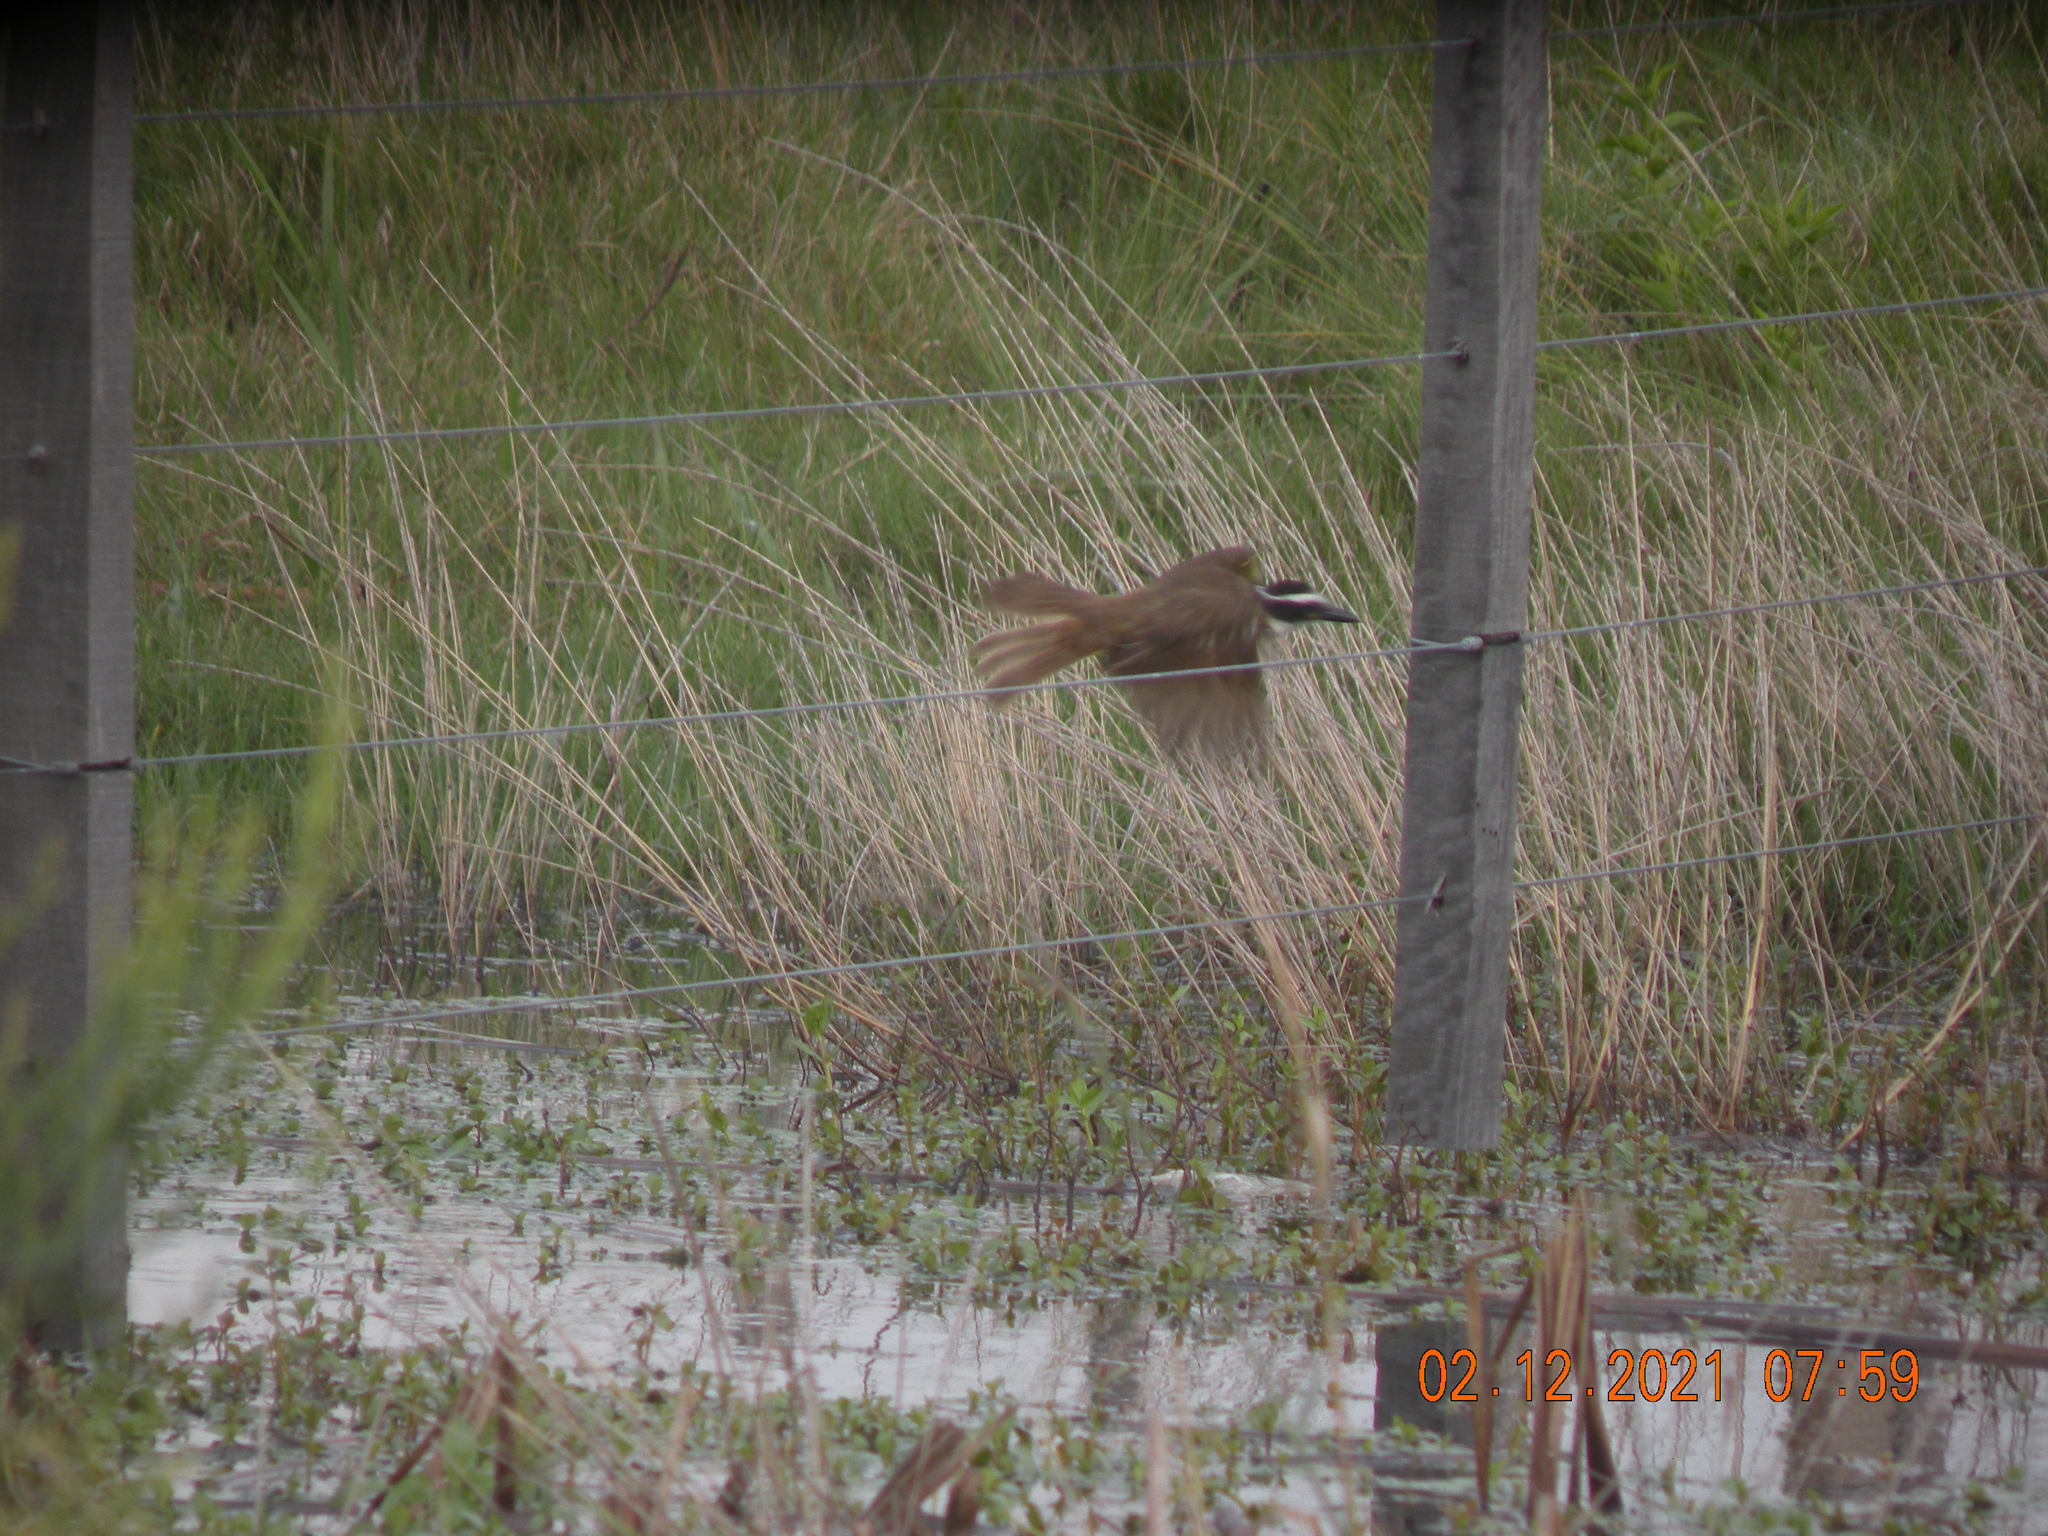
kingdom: Animalia
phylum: Chordata
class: Aves
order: Passeriformes
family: Tyrannidae
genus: Pitangus
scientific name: Pitangus sulphuratus
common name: Great kiskadee
